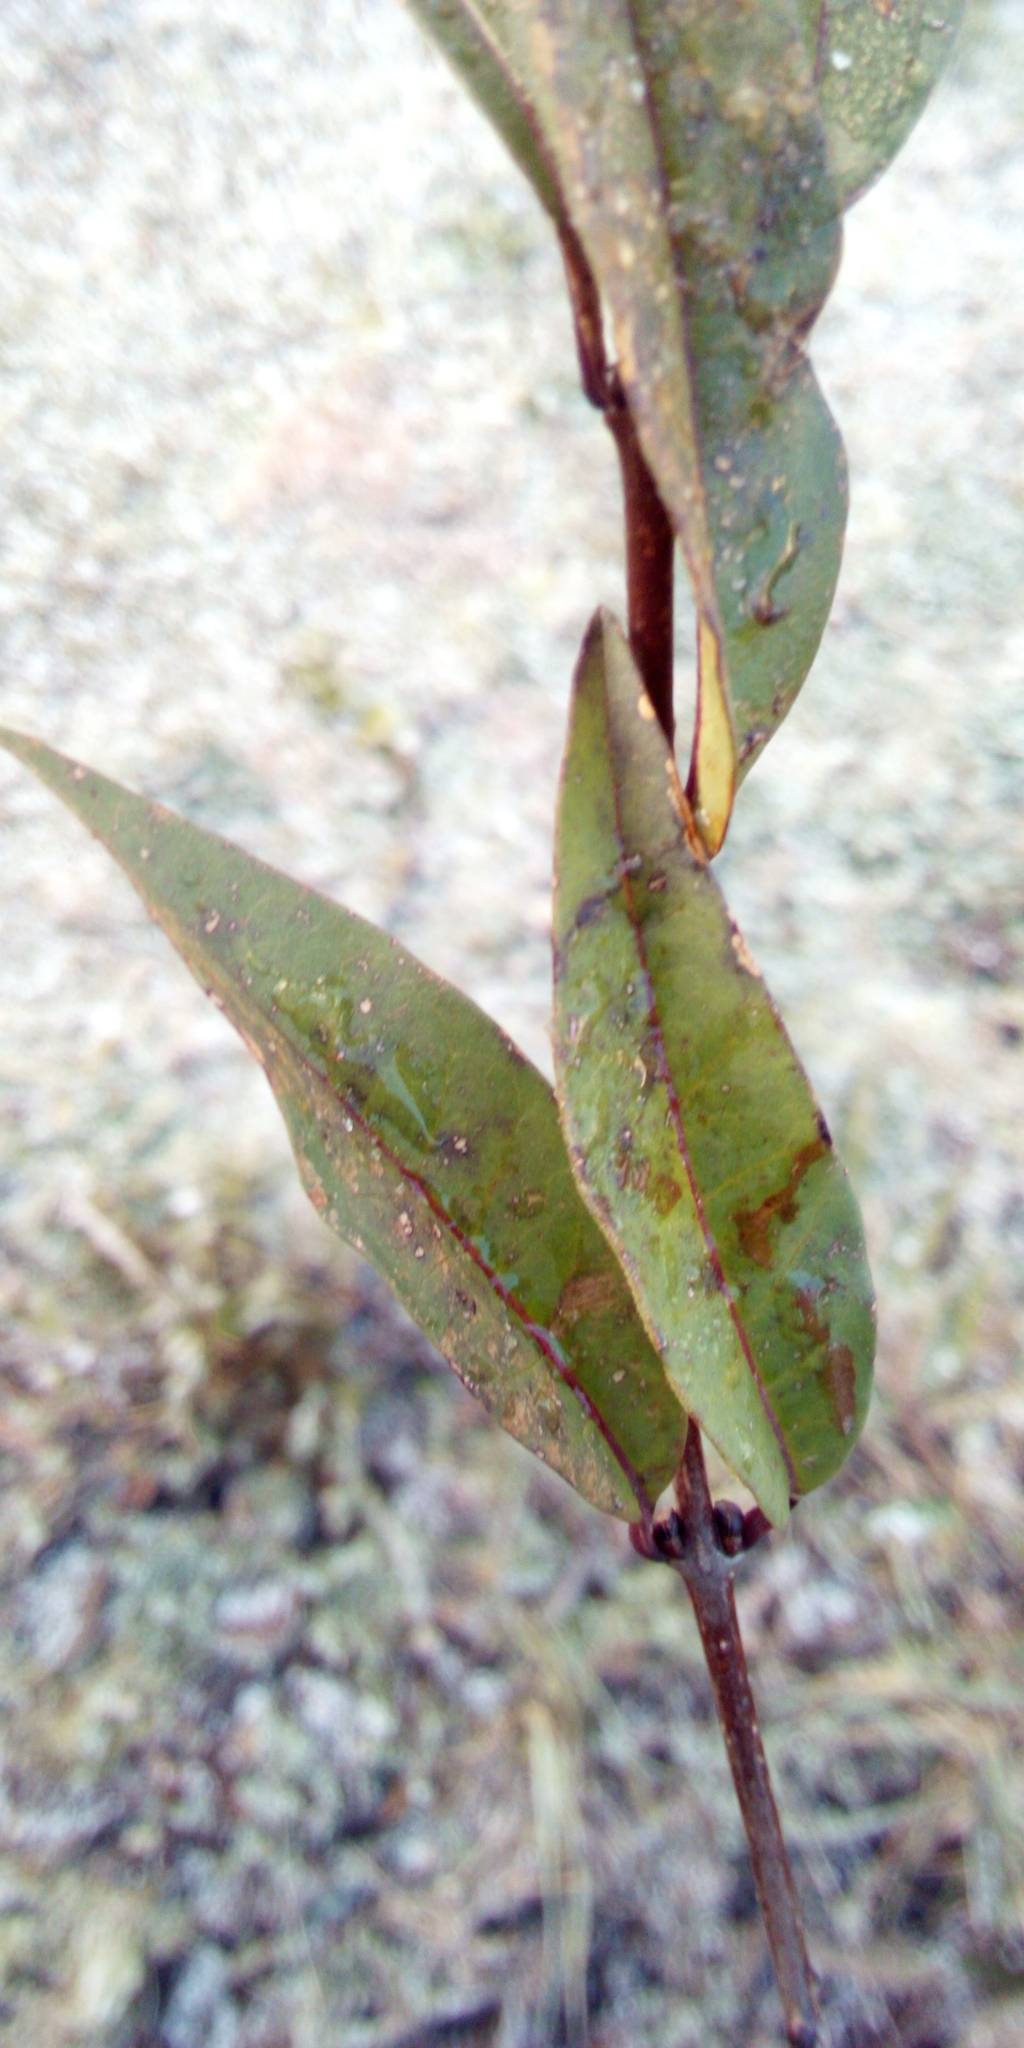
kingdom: Plantae
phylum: Tracheophyta
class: Magnoliopsida
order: Lamiales
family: Oleaceae
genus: Ligustrum
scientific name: Ligustrum vulgare
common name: Wild privet
